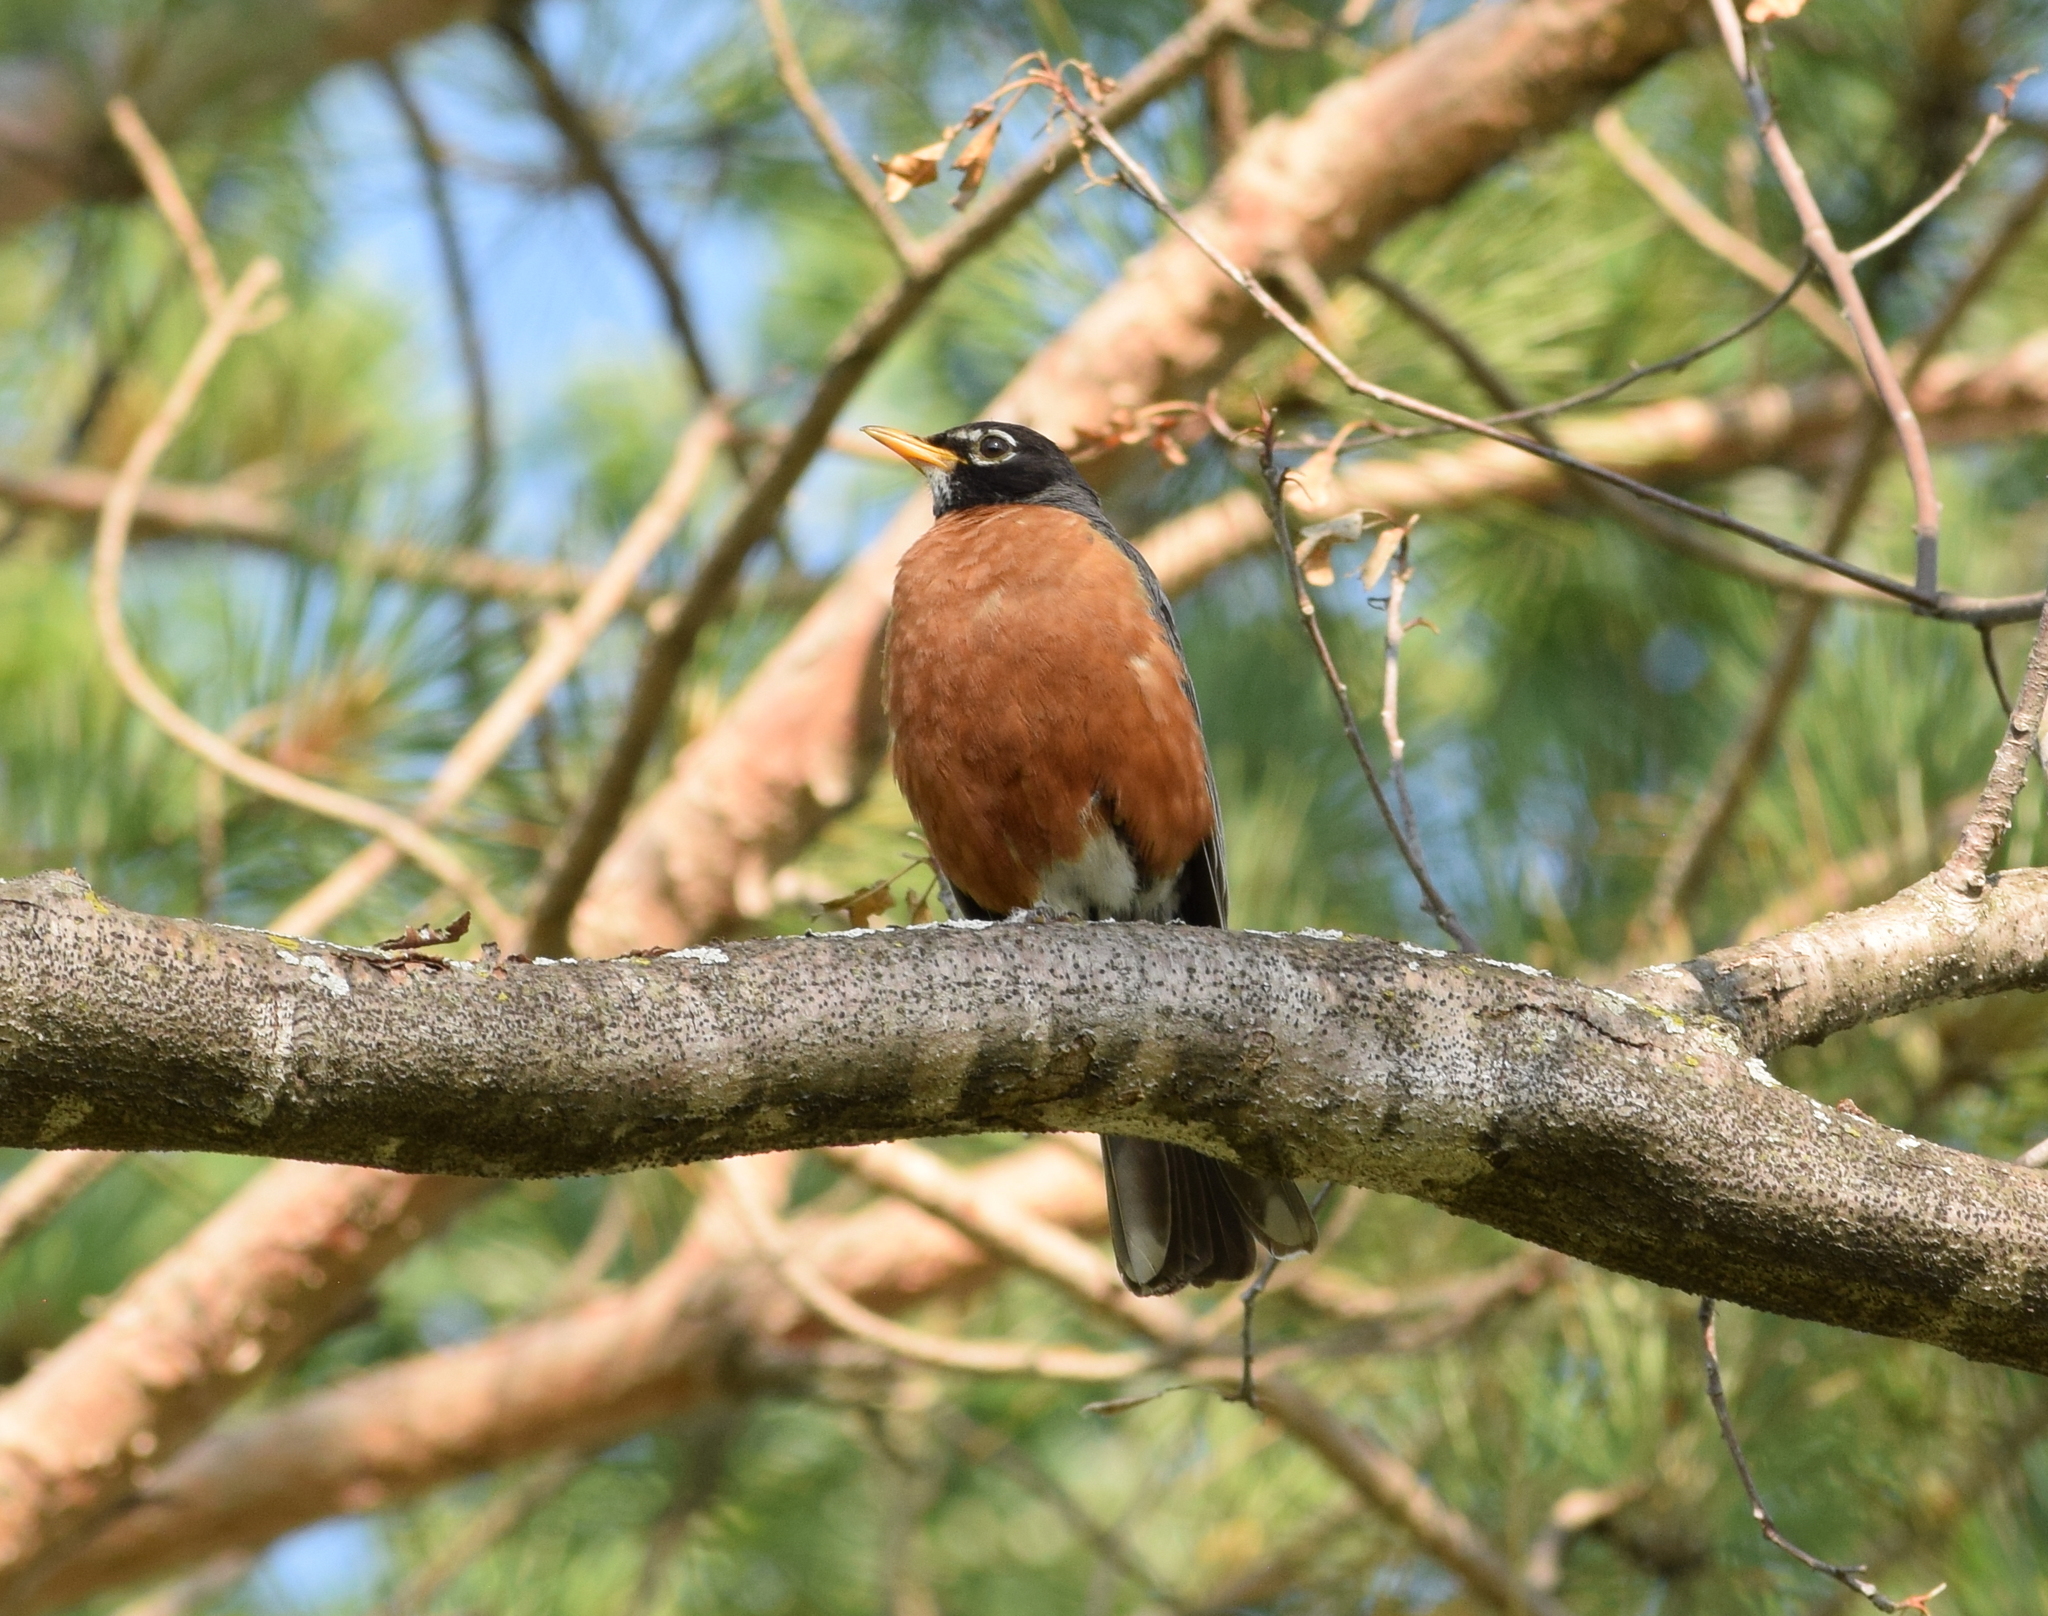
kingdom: Animalia
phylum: Chordata
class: Aves
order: Passeriformes
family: Turdidae
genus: Turdus
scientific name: Turdus migratorius
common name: American robin
